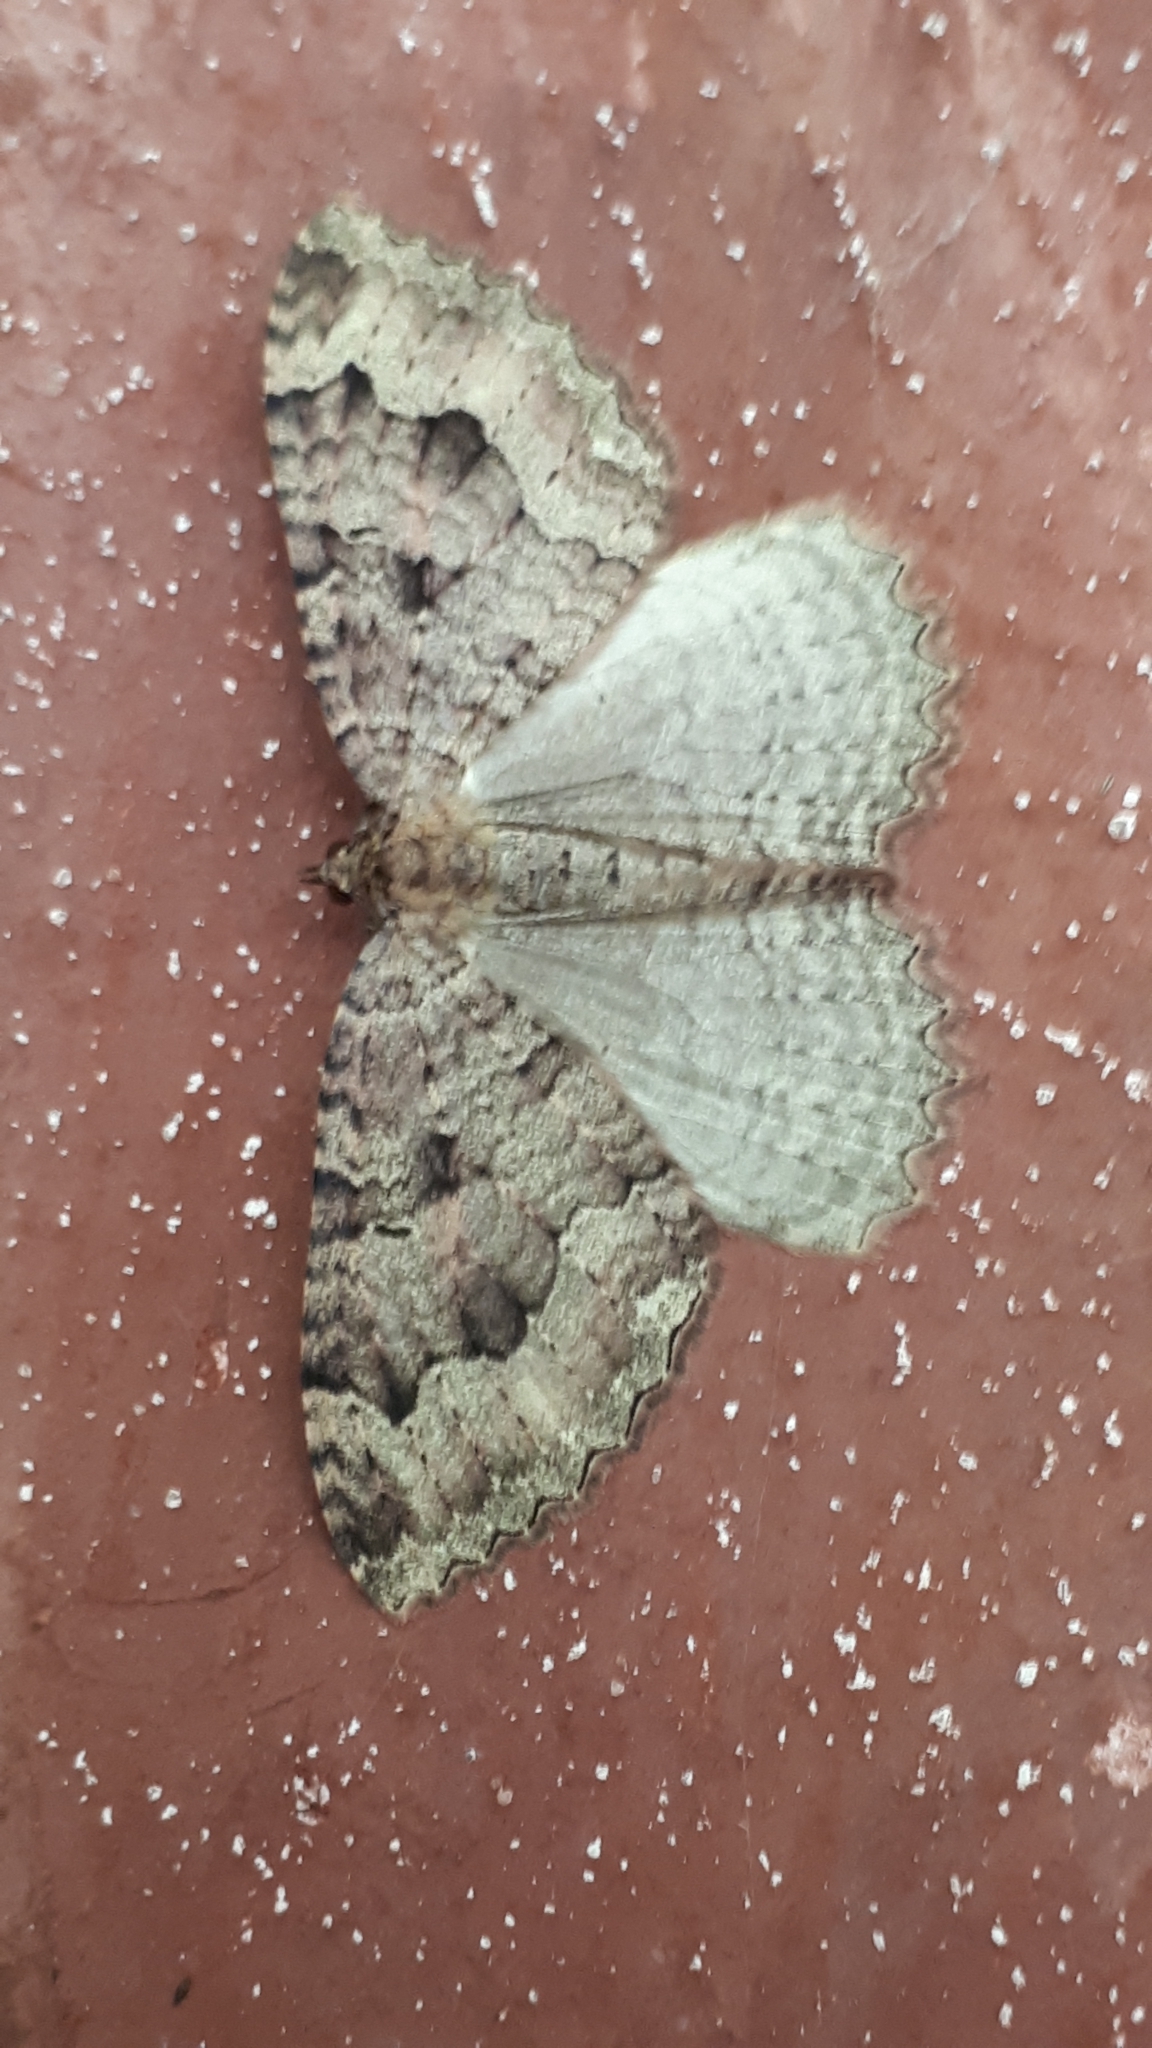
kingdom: Animalia
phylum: Arthropoda
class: Insecta
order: Lepidoptera
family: Geometridae
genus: Triphosa
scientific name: Triphosa dubitata
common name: Tissue
